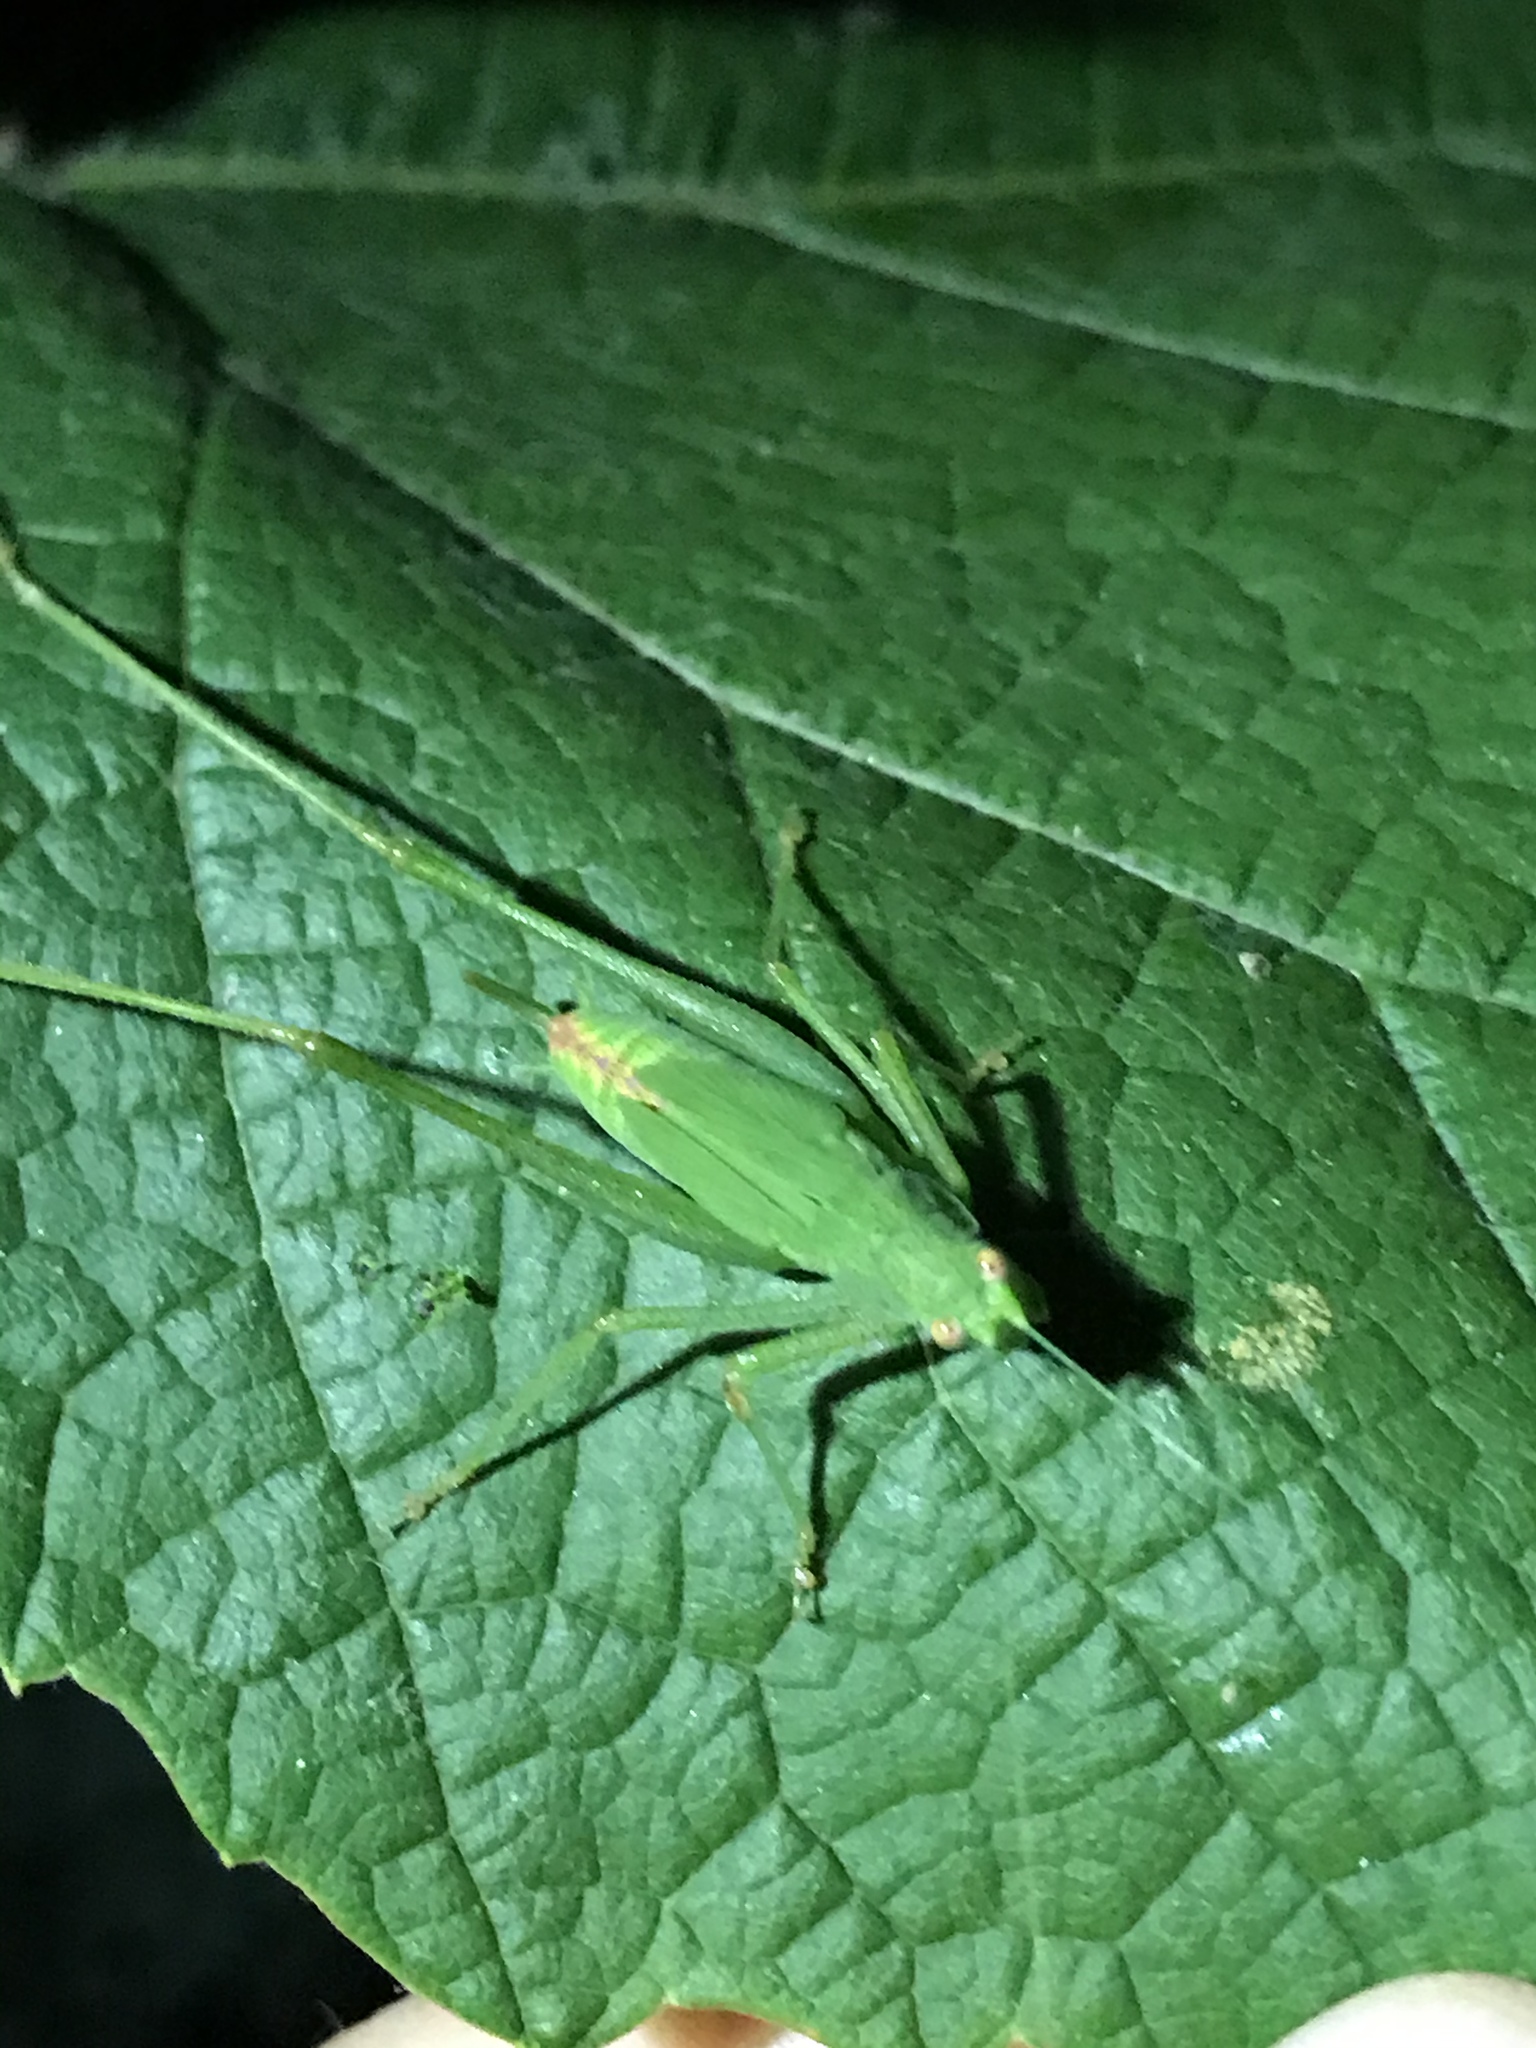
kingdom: Animalia
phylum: Arthropoda
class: Insecta
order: Orthoptera
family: Tettigoniidae
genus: Phaneroptera
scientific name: Phaneroptera nana
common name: Southern sickle bush-cricket
